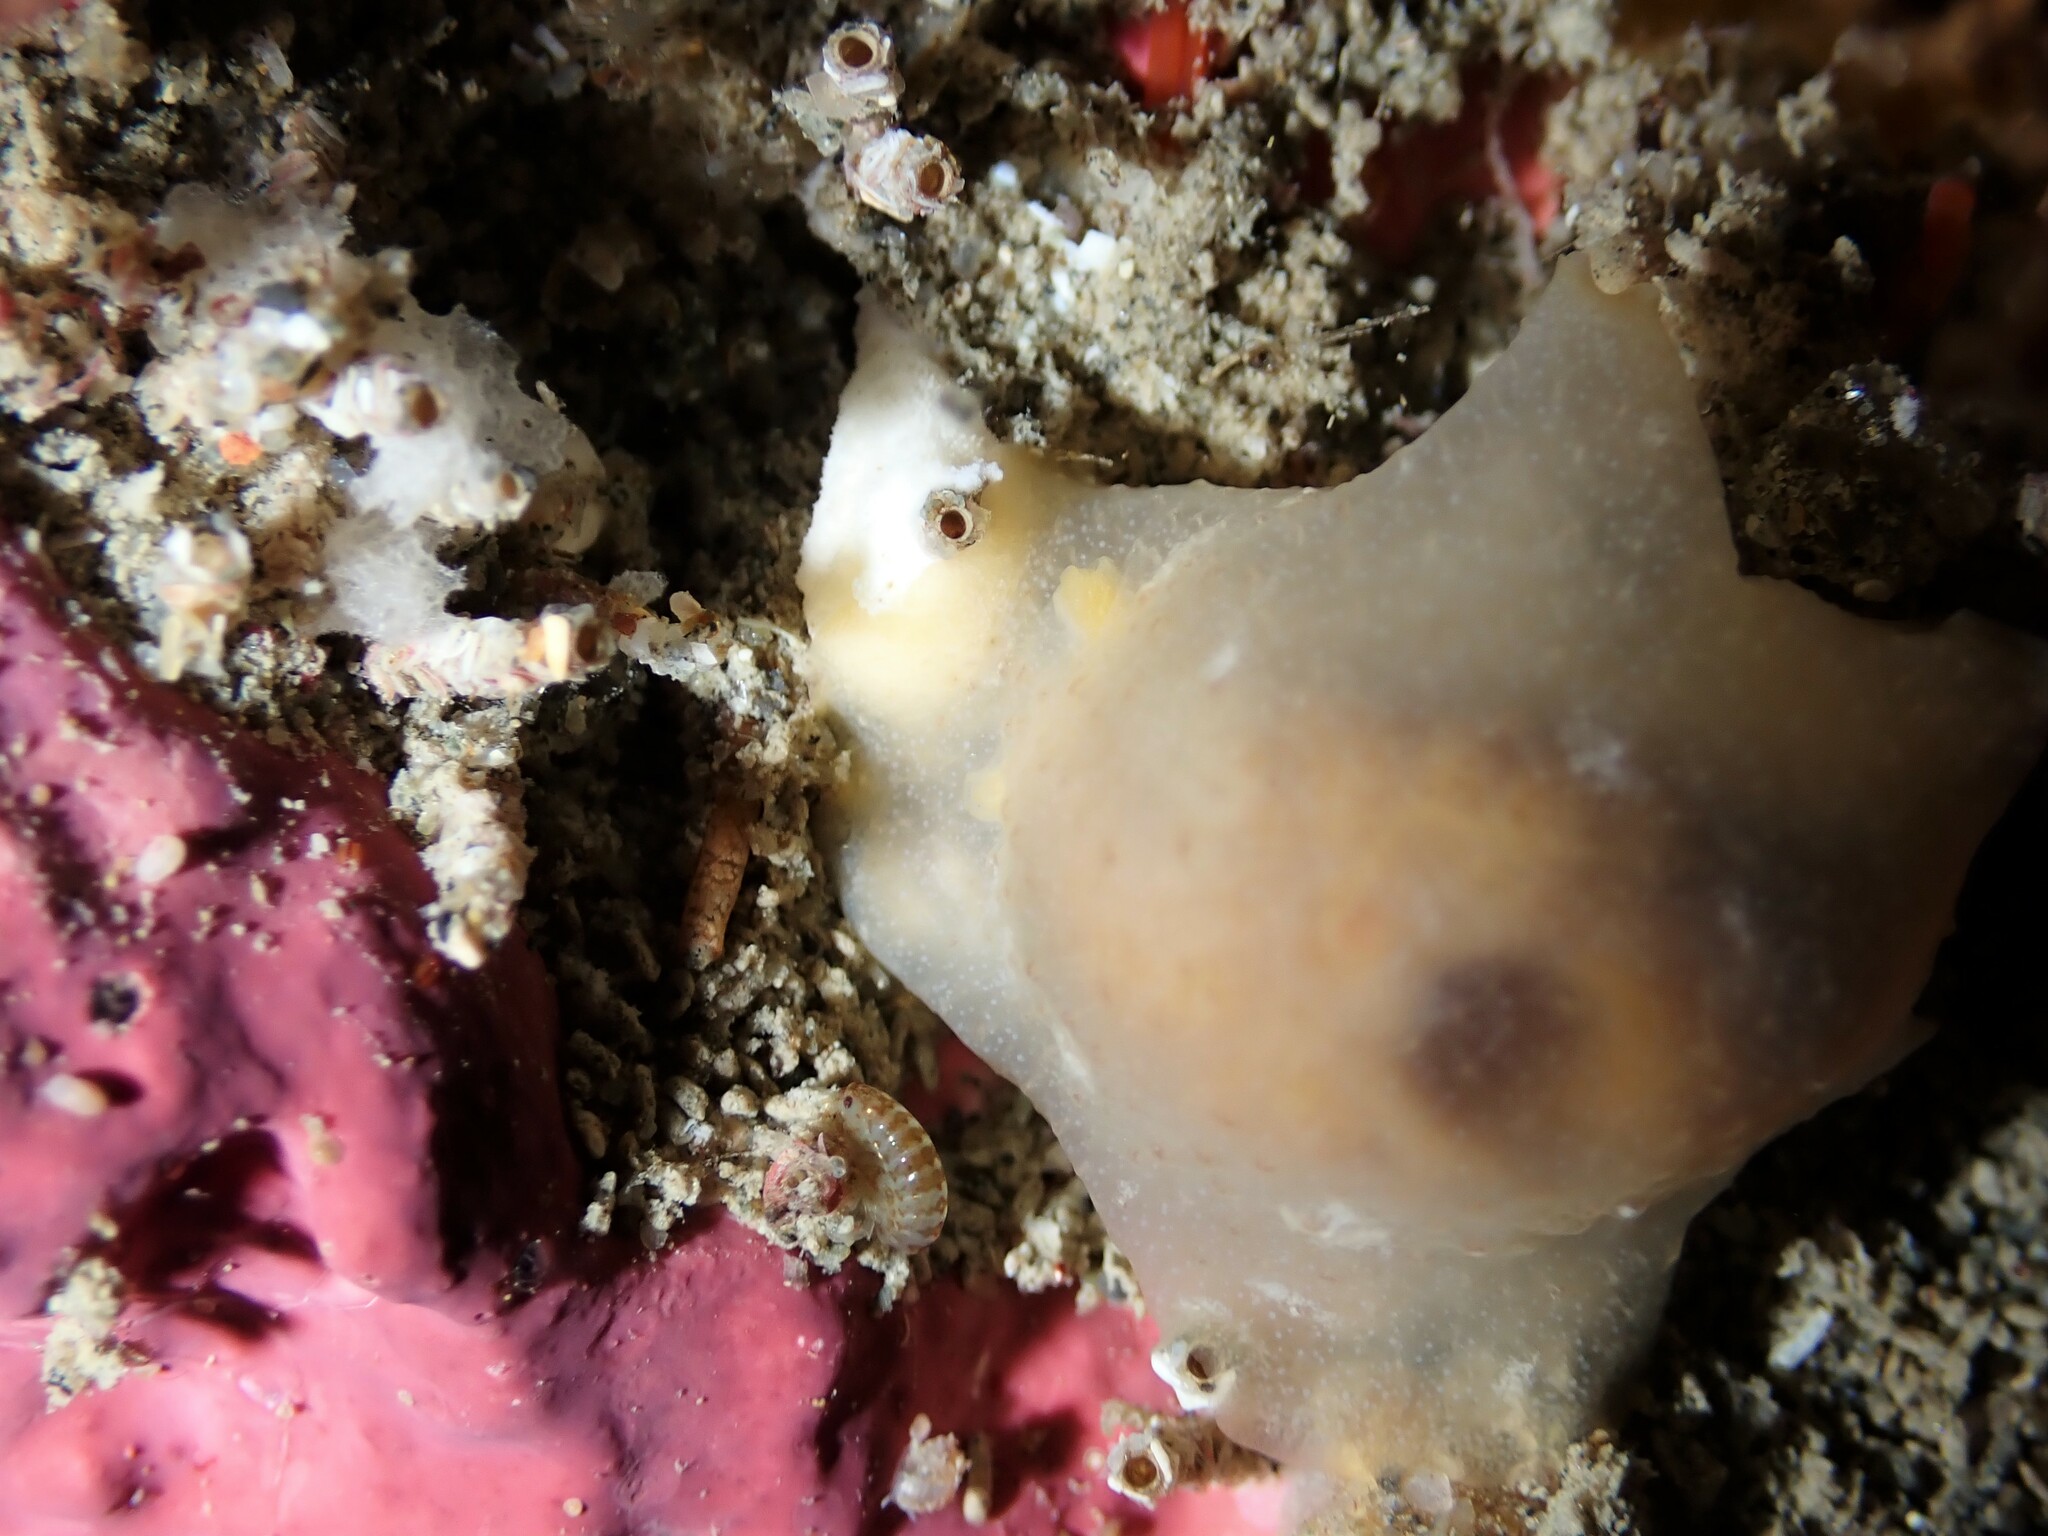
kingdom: Animalia
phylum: Mollusca
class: Gastropoda
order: Nudibranchia
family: Dendrodorididae
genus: Dendrodoris
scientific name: Dendrodoris citrina
